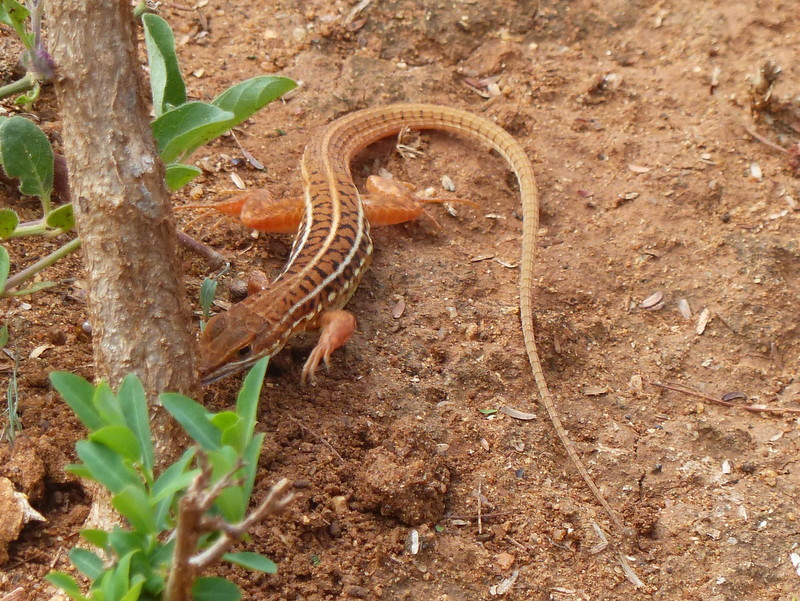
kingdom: Animalia
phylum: Chordata
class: Squamata
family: Lacertidae
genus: Heliobolus
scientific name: Heliobolus spekii
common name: Speke’s sand lizard
